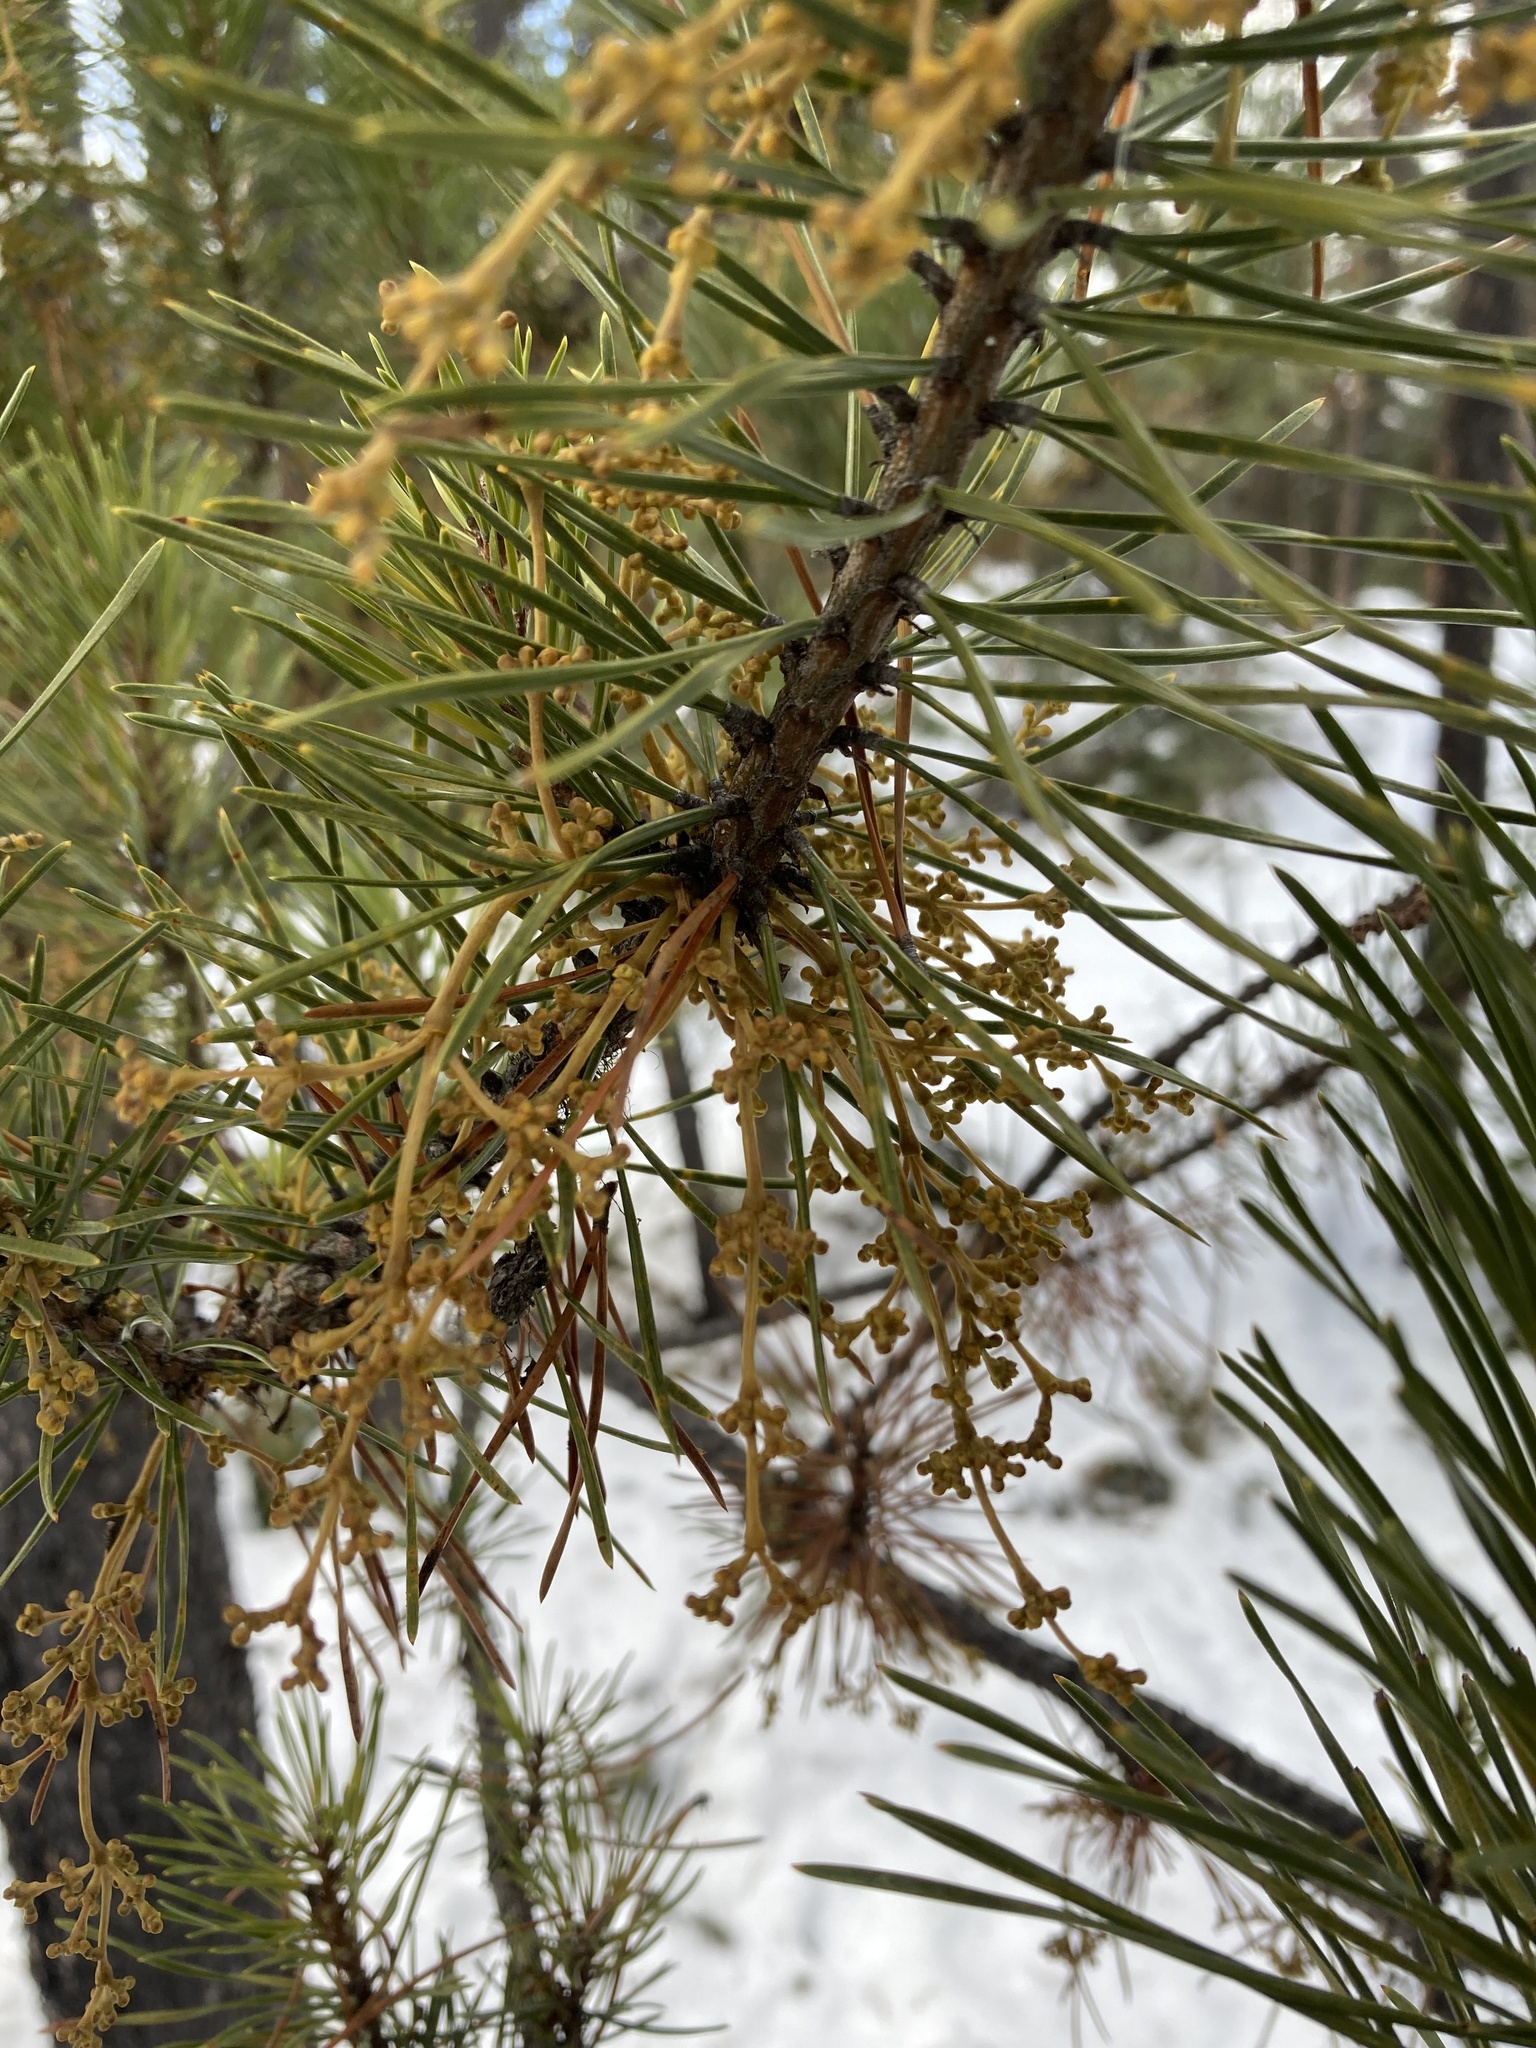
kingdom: Plantae
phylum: Tracheophyta
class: Magnoliopsida
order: Santalales
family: Viscaceae
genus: Arceuthobium
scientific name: Arceuthobium americanum
